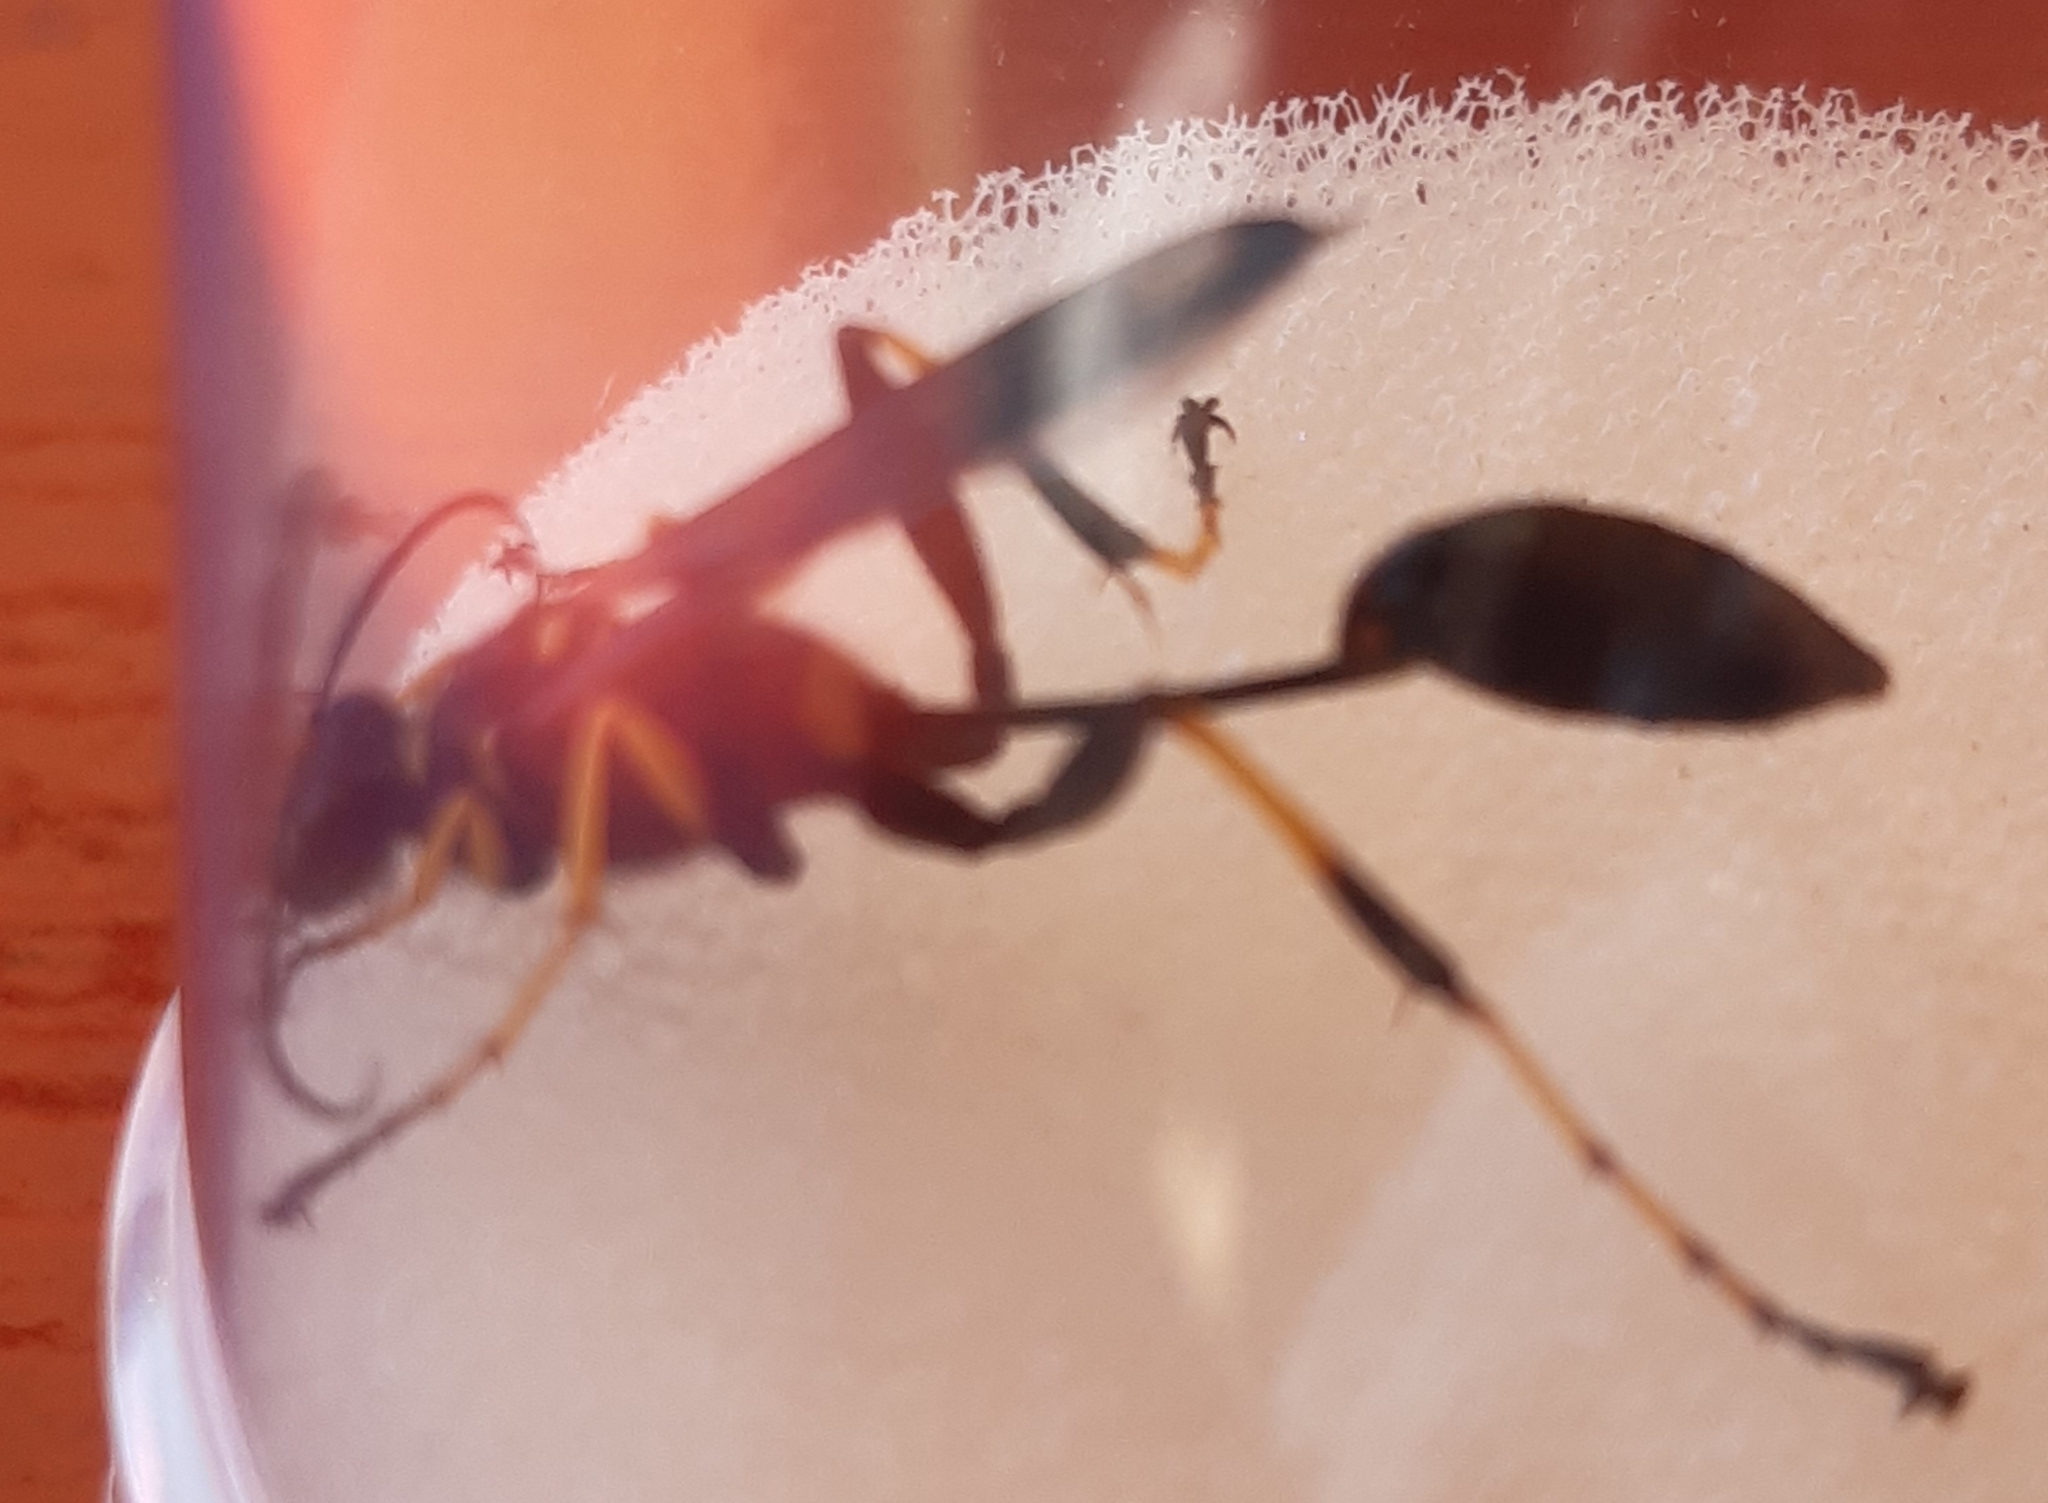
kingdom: Animalia
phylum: Arthropoda
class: Insecta
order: Hymenoptera
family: Sphecidae
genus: Sceliphron
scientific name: Sceliphron caementarium
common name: Mud dauber
